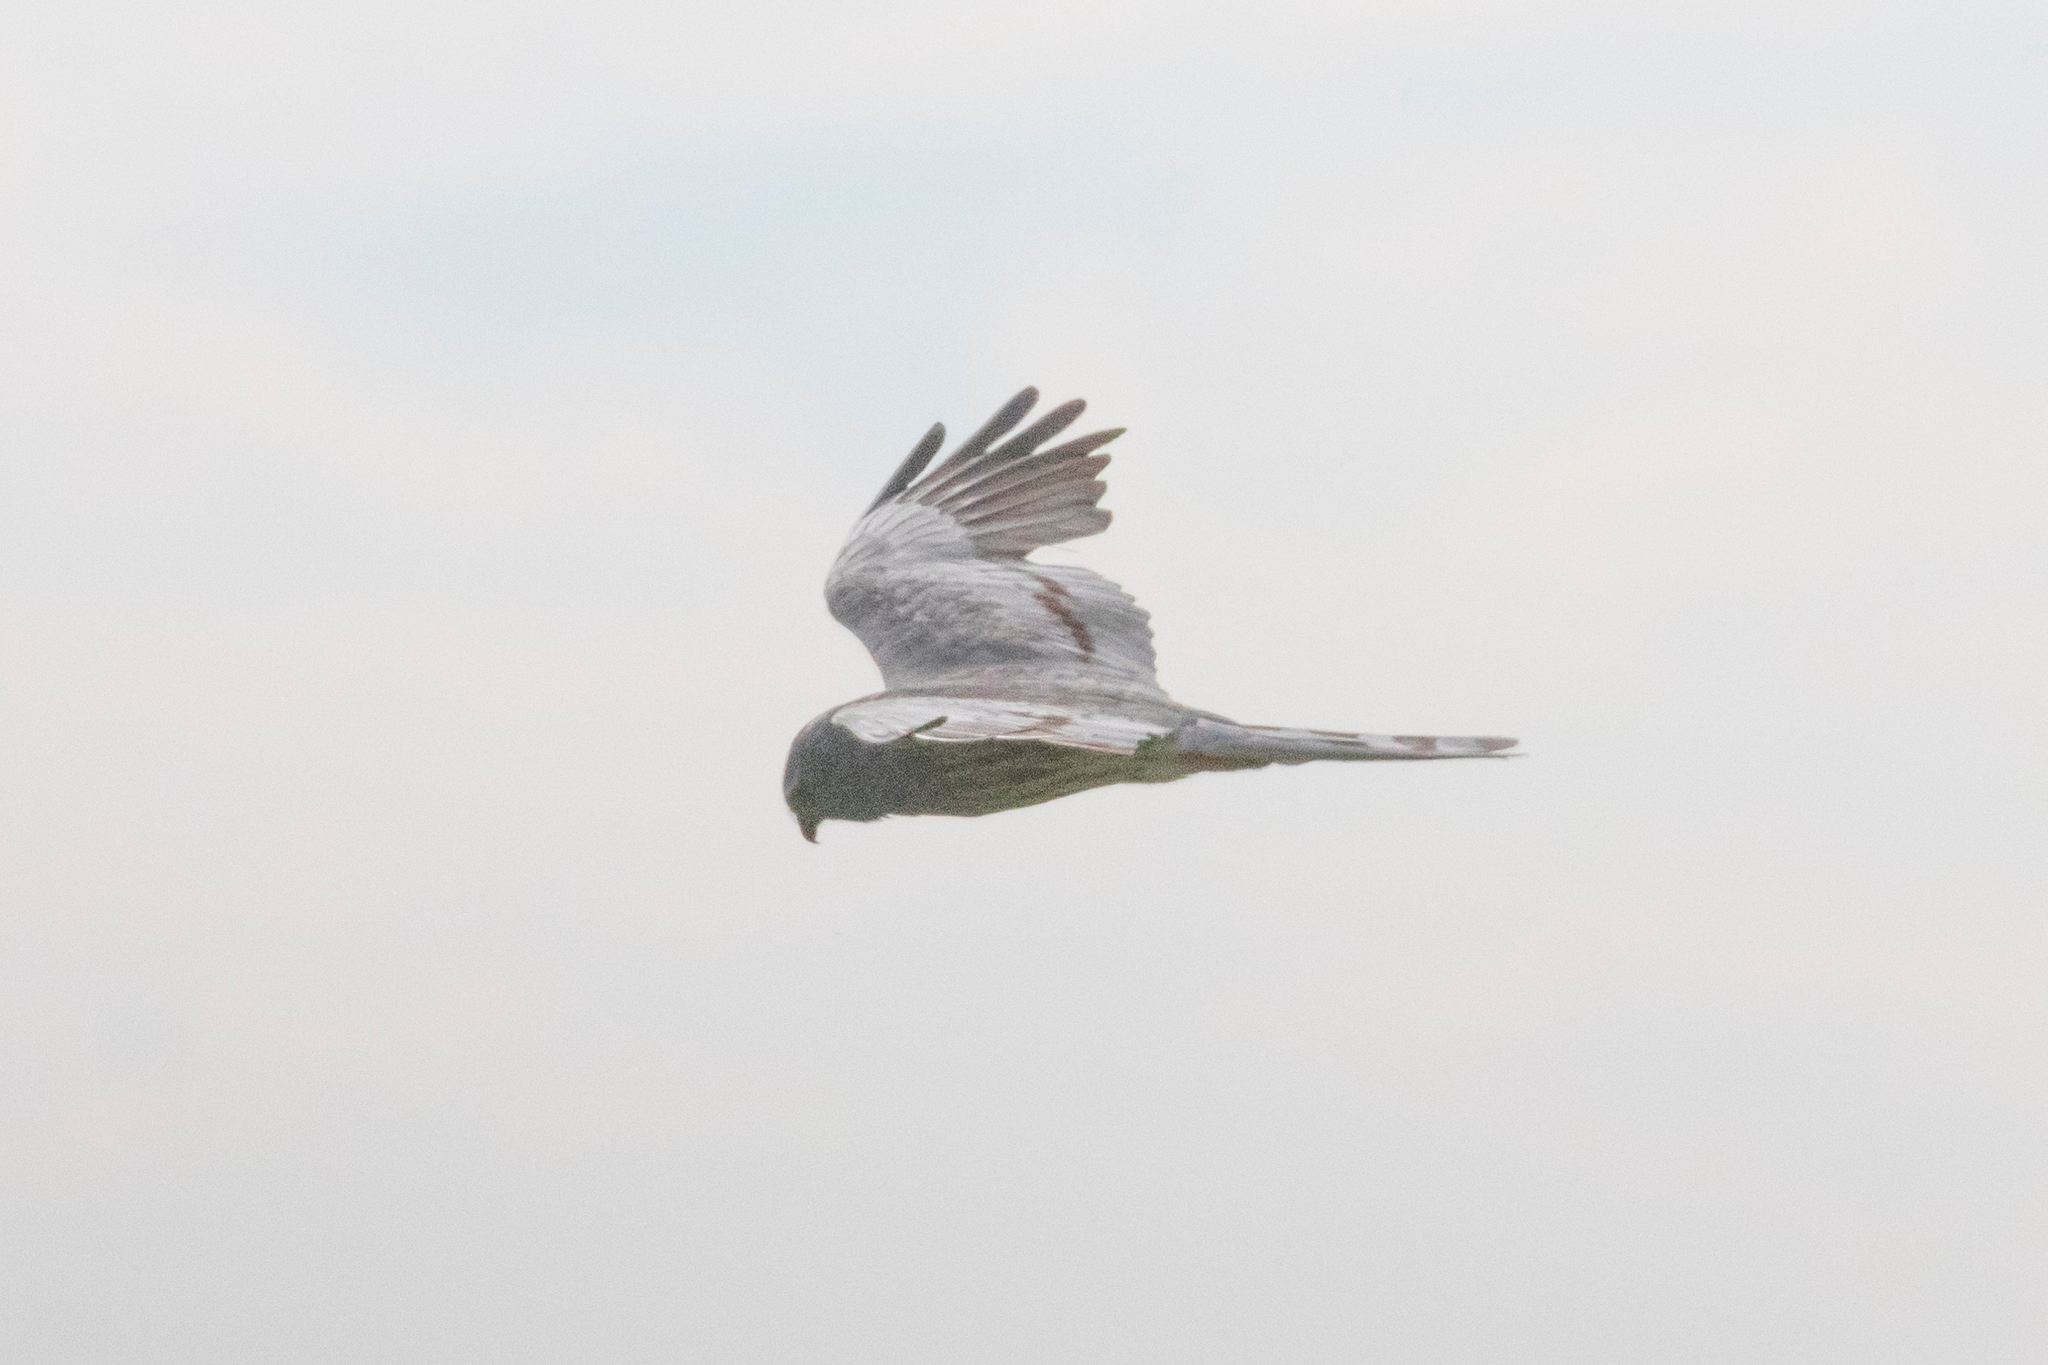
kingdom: Animalia
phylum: Chordata
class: Aves
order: Accipitriformes
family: Accipitridae
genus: Circus
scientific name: Circus pygargus
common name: Montagu's harrier
